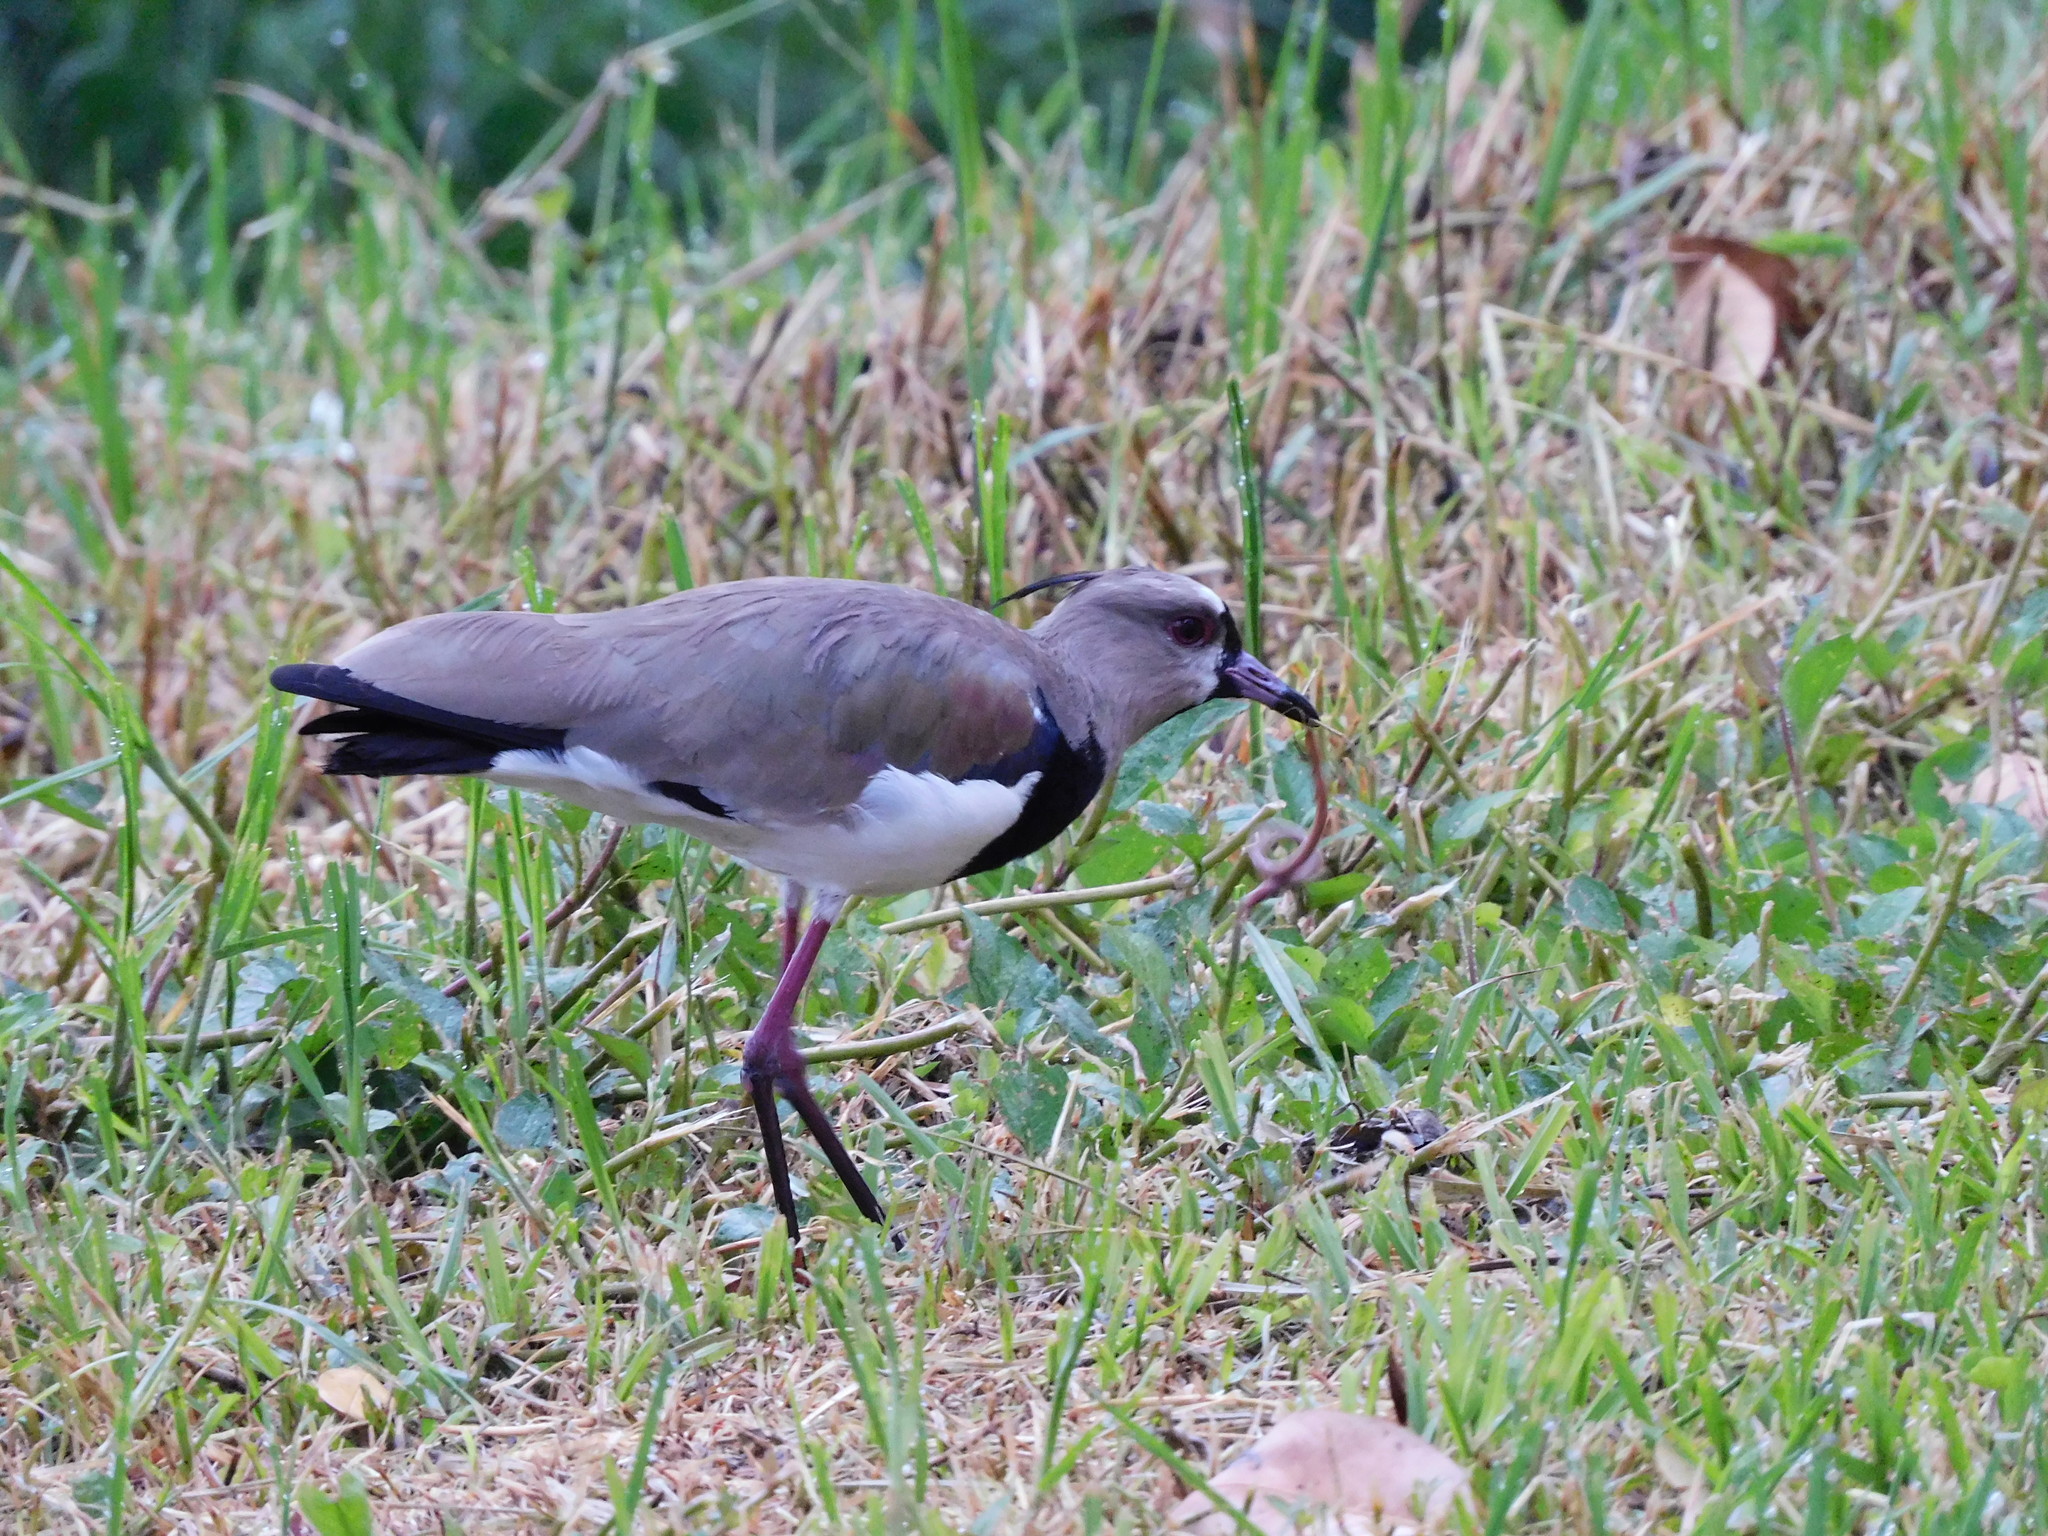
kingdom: Animalia
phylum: Chordata
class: Aves
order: Charadriiformes
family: Charadriidae
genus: Vanellus
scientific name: Vanellus chilensis
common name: Southern lapwing
